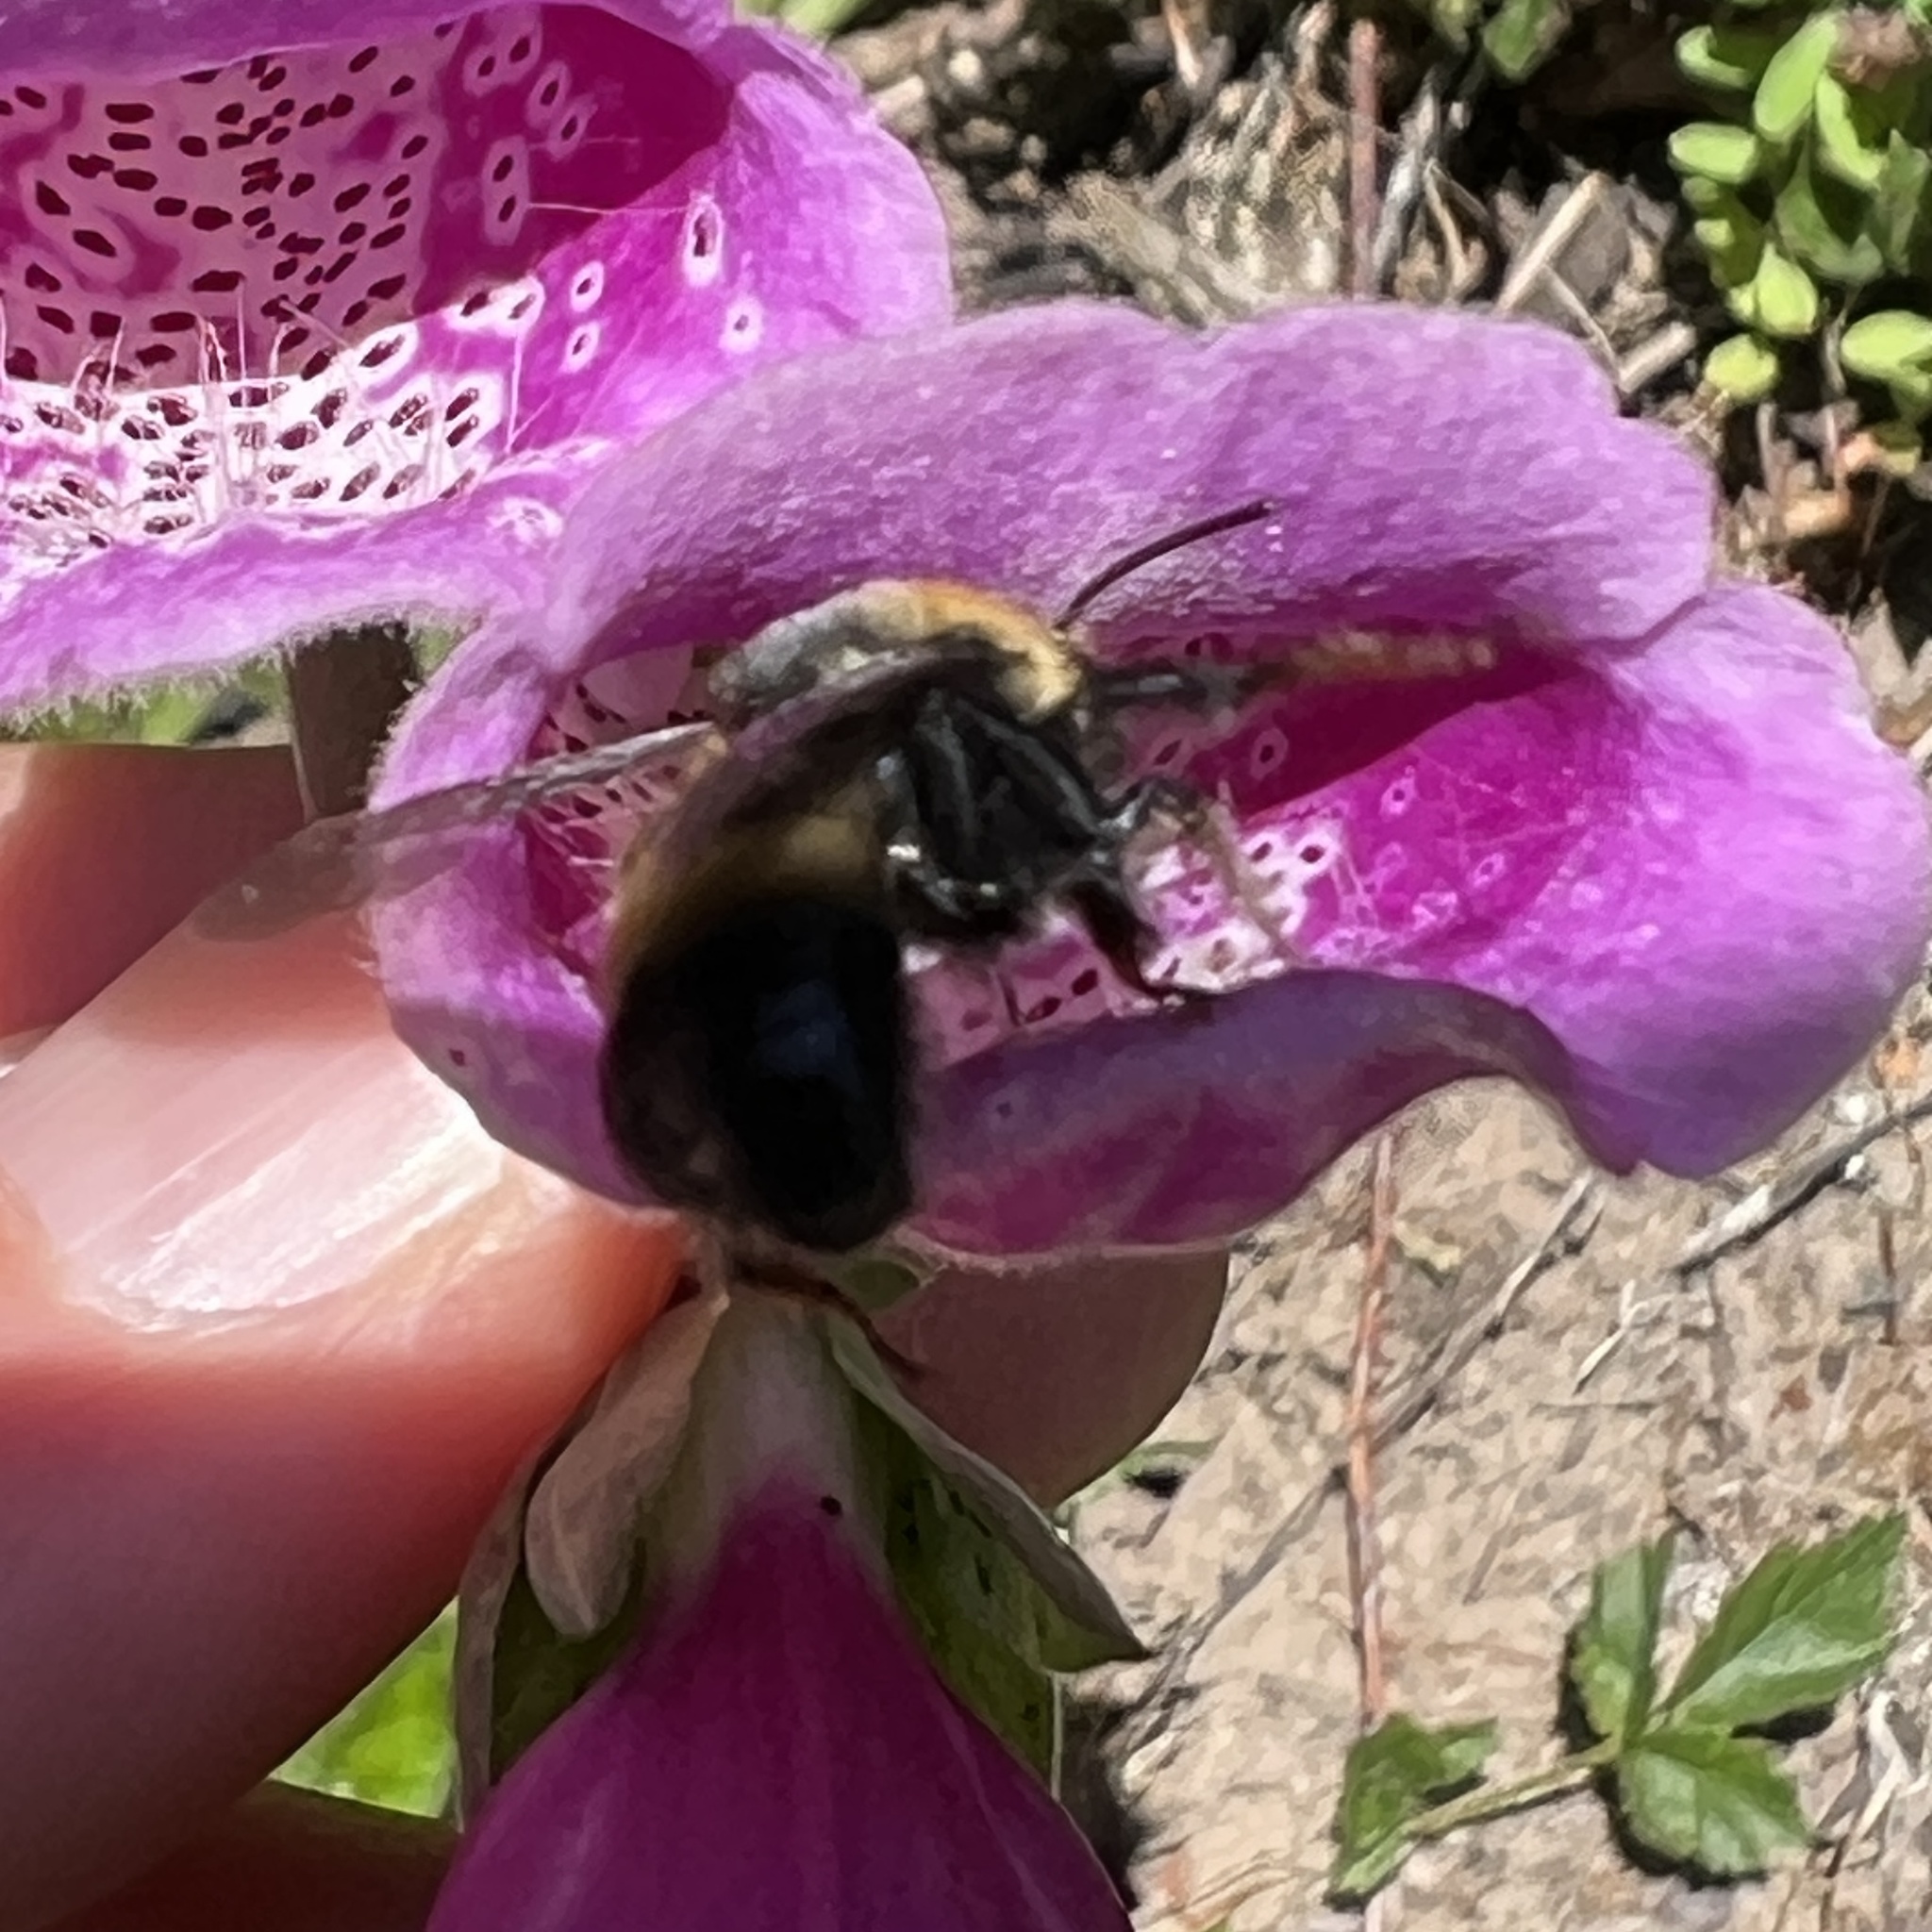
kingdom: Animalia
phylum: Arthropoda
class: Insecta
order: Hymenoptera
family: Apidae
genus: Anthophora
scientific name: Anthophora bomboides
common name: Bumble-bee-mimic digger bee
